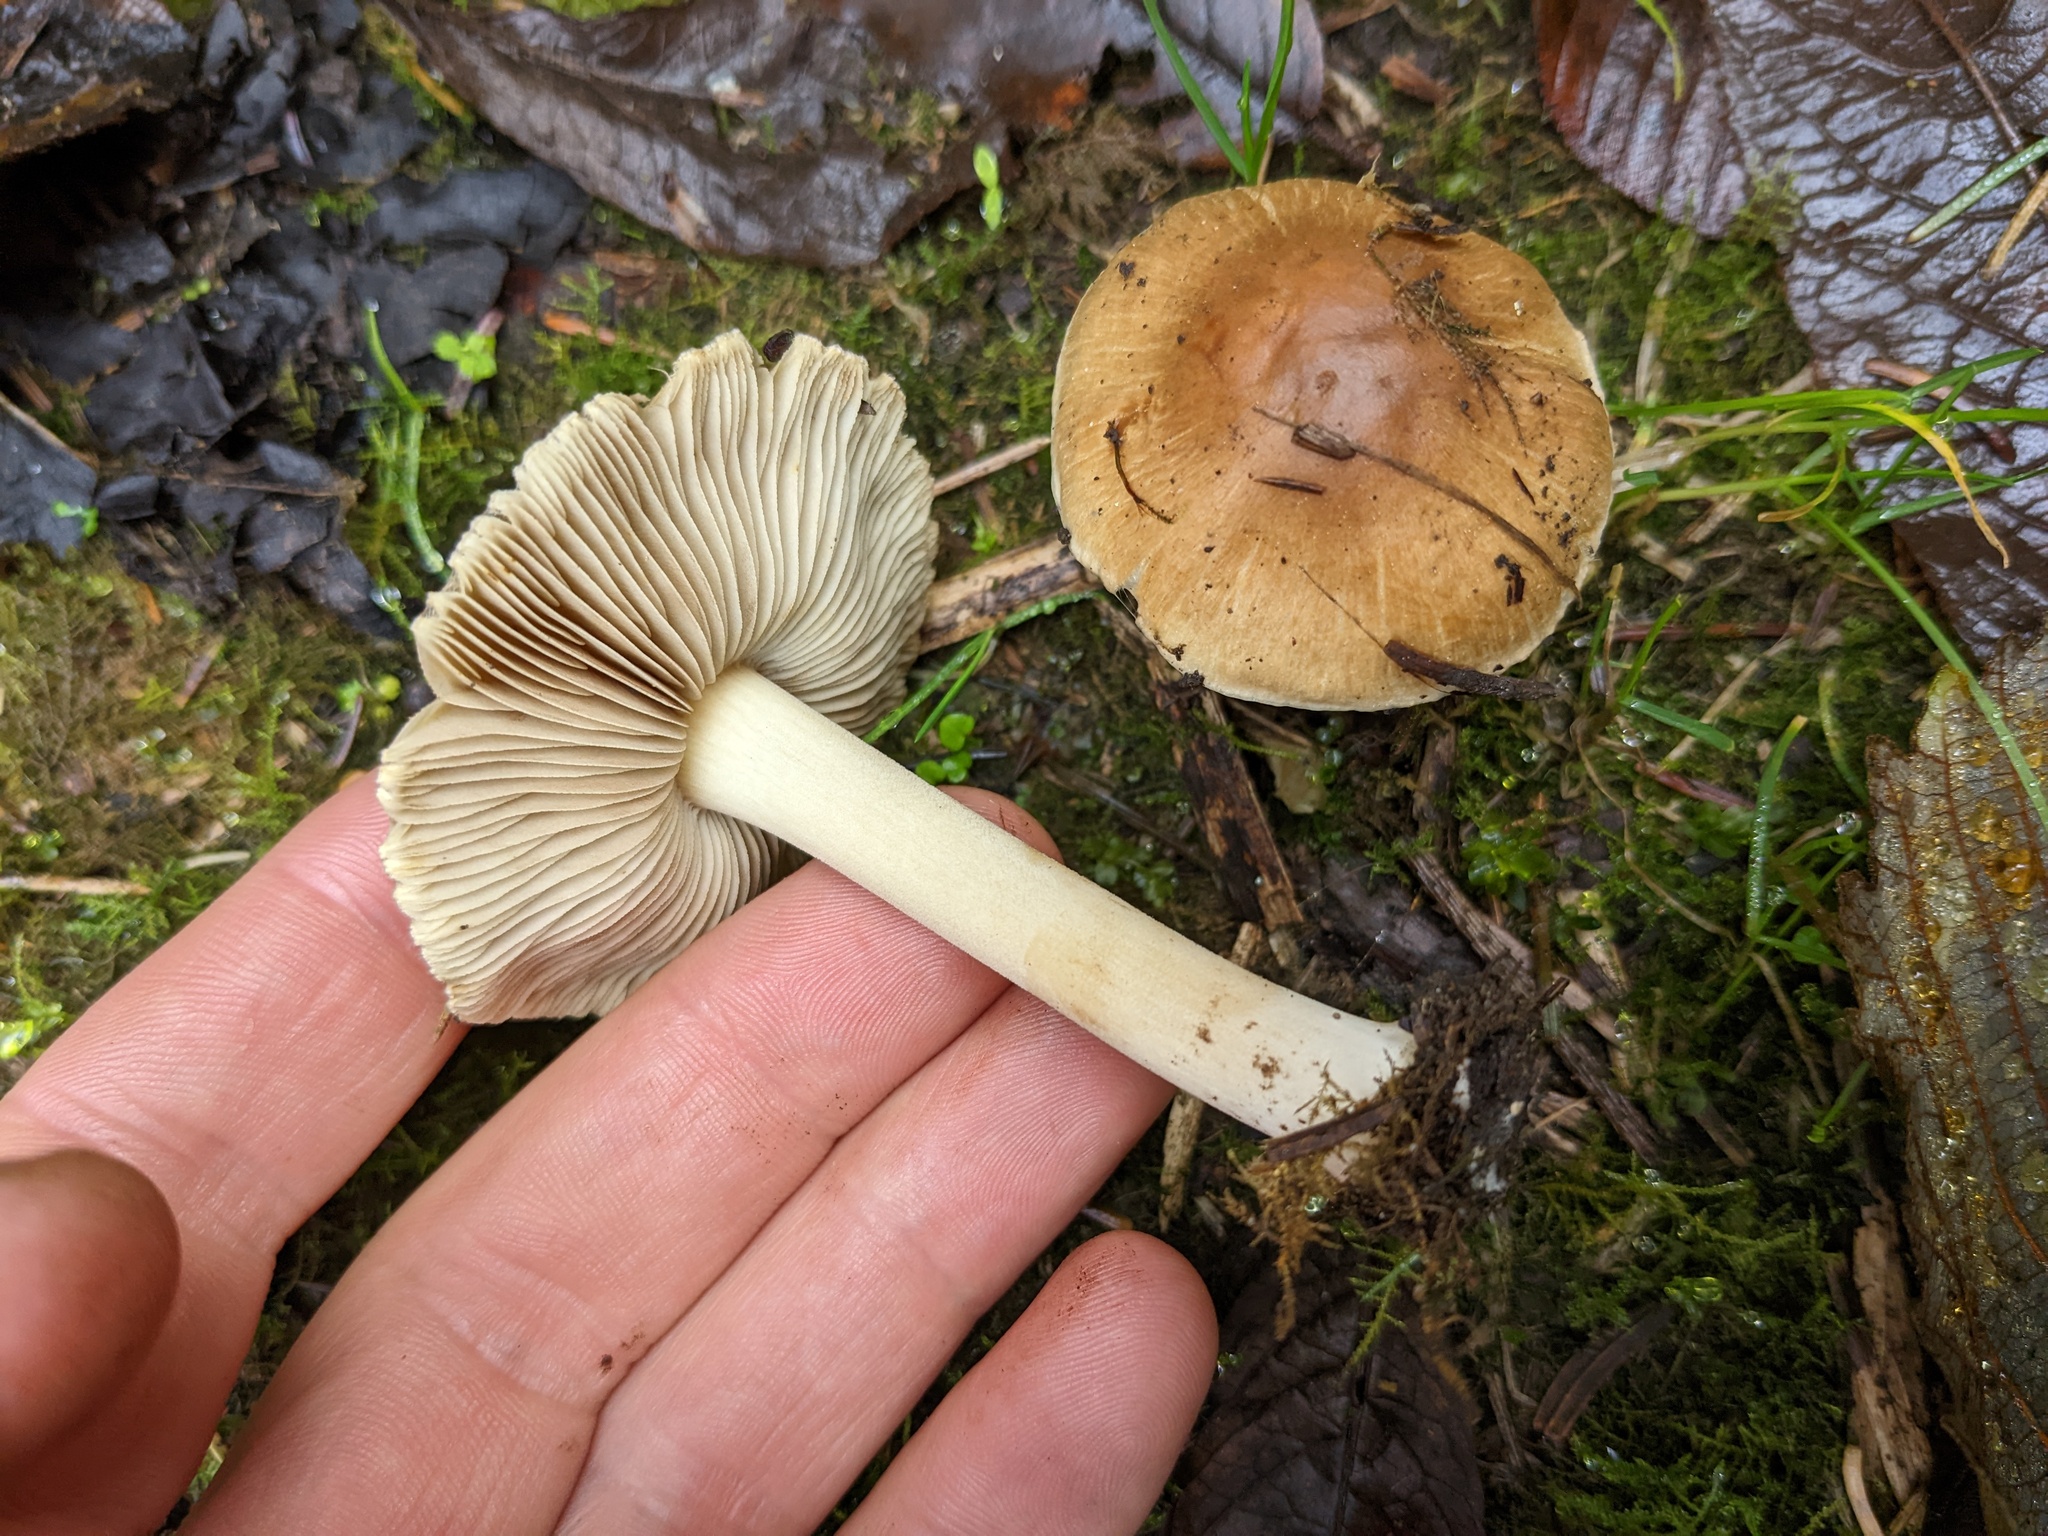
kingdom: Fungi
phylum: Basidiomycota
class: Agaricomycetes
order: Agaricales
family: Inocybaceae
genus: Pseudosperma
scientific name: Pseudosperma sororium
